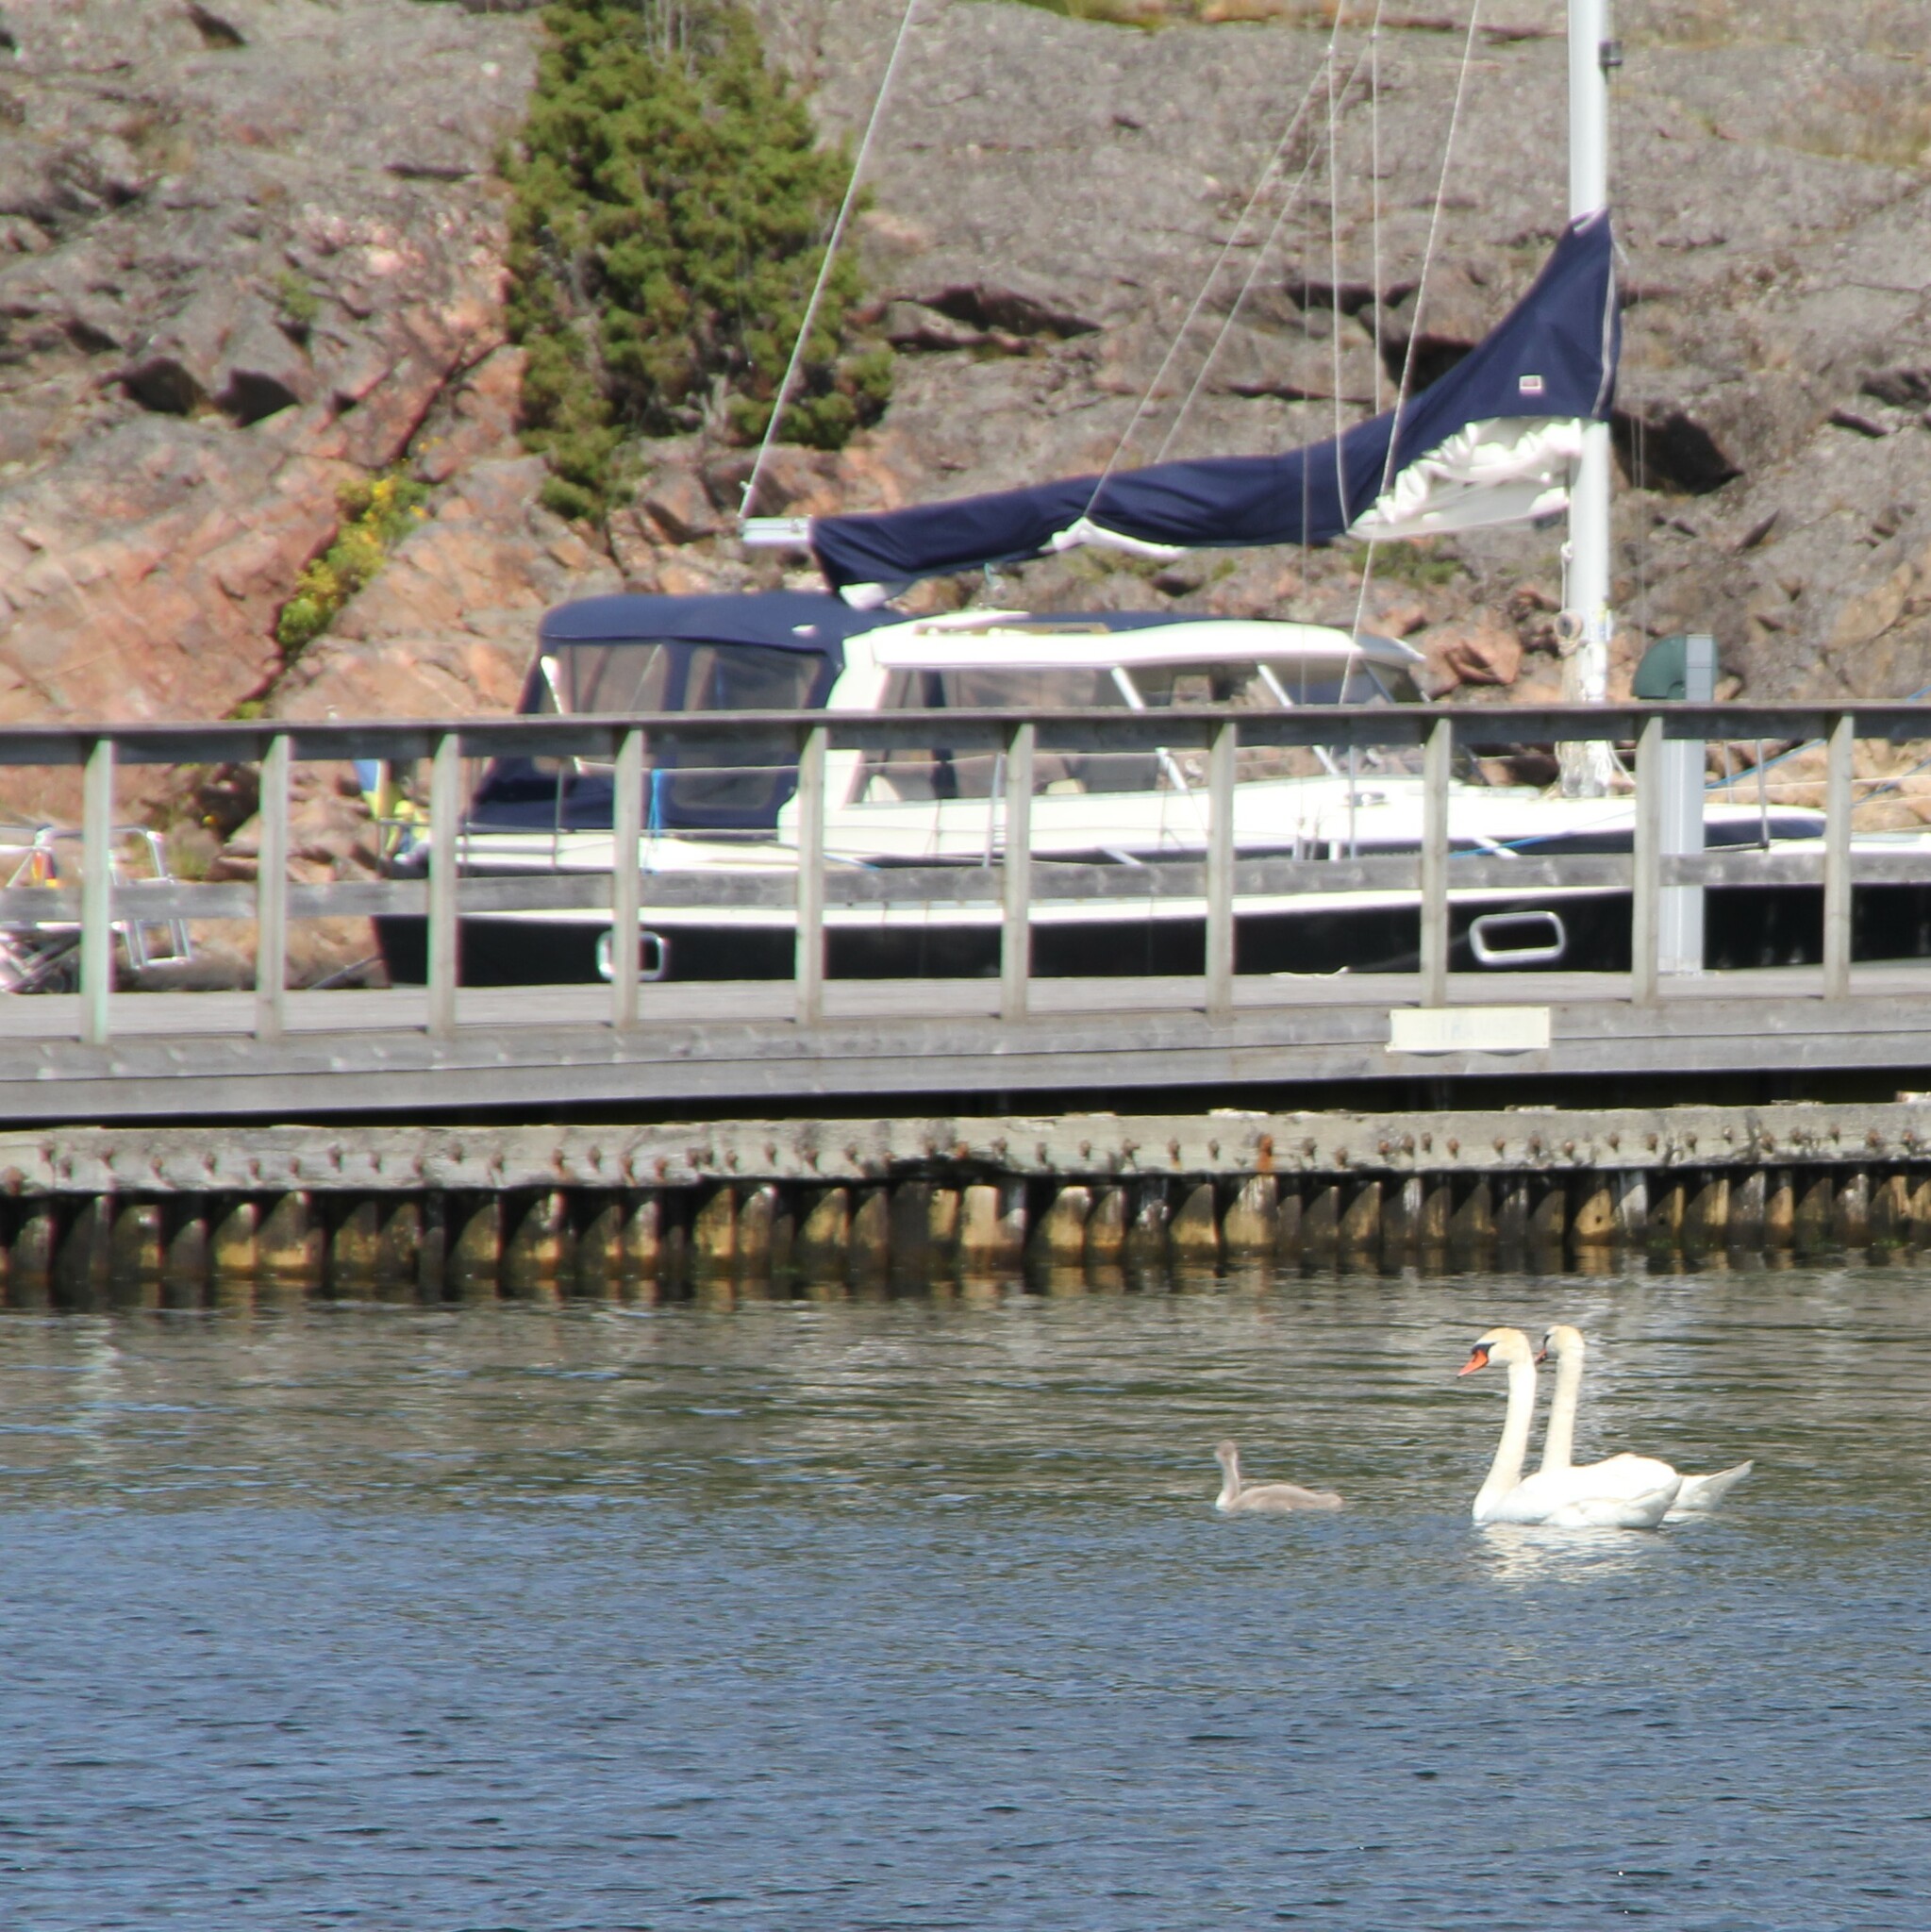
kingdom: Animalia
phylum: Chordata
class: Aves
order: Anseriformes
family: Anatidae
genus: Cygnus
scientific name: Cygnus olor
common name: Mute swan
